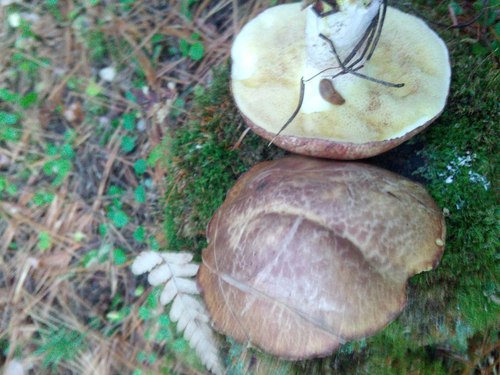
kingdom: Fungi
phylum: Basidiomycota
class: Agaricomycetes
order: Boletales
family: Suillaceae
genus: Suillus
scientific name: Suillus placidus
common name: Slippery white bolete
